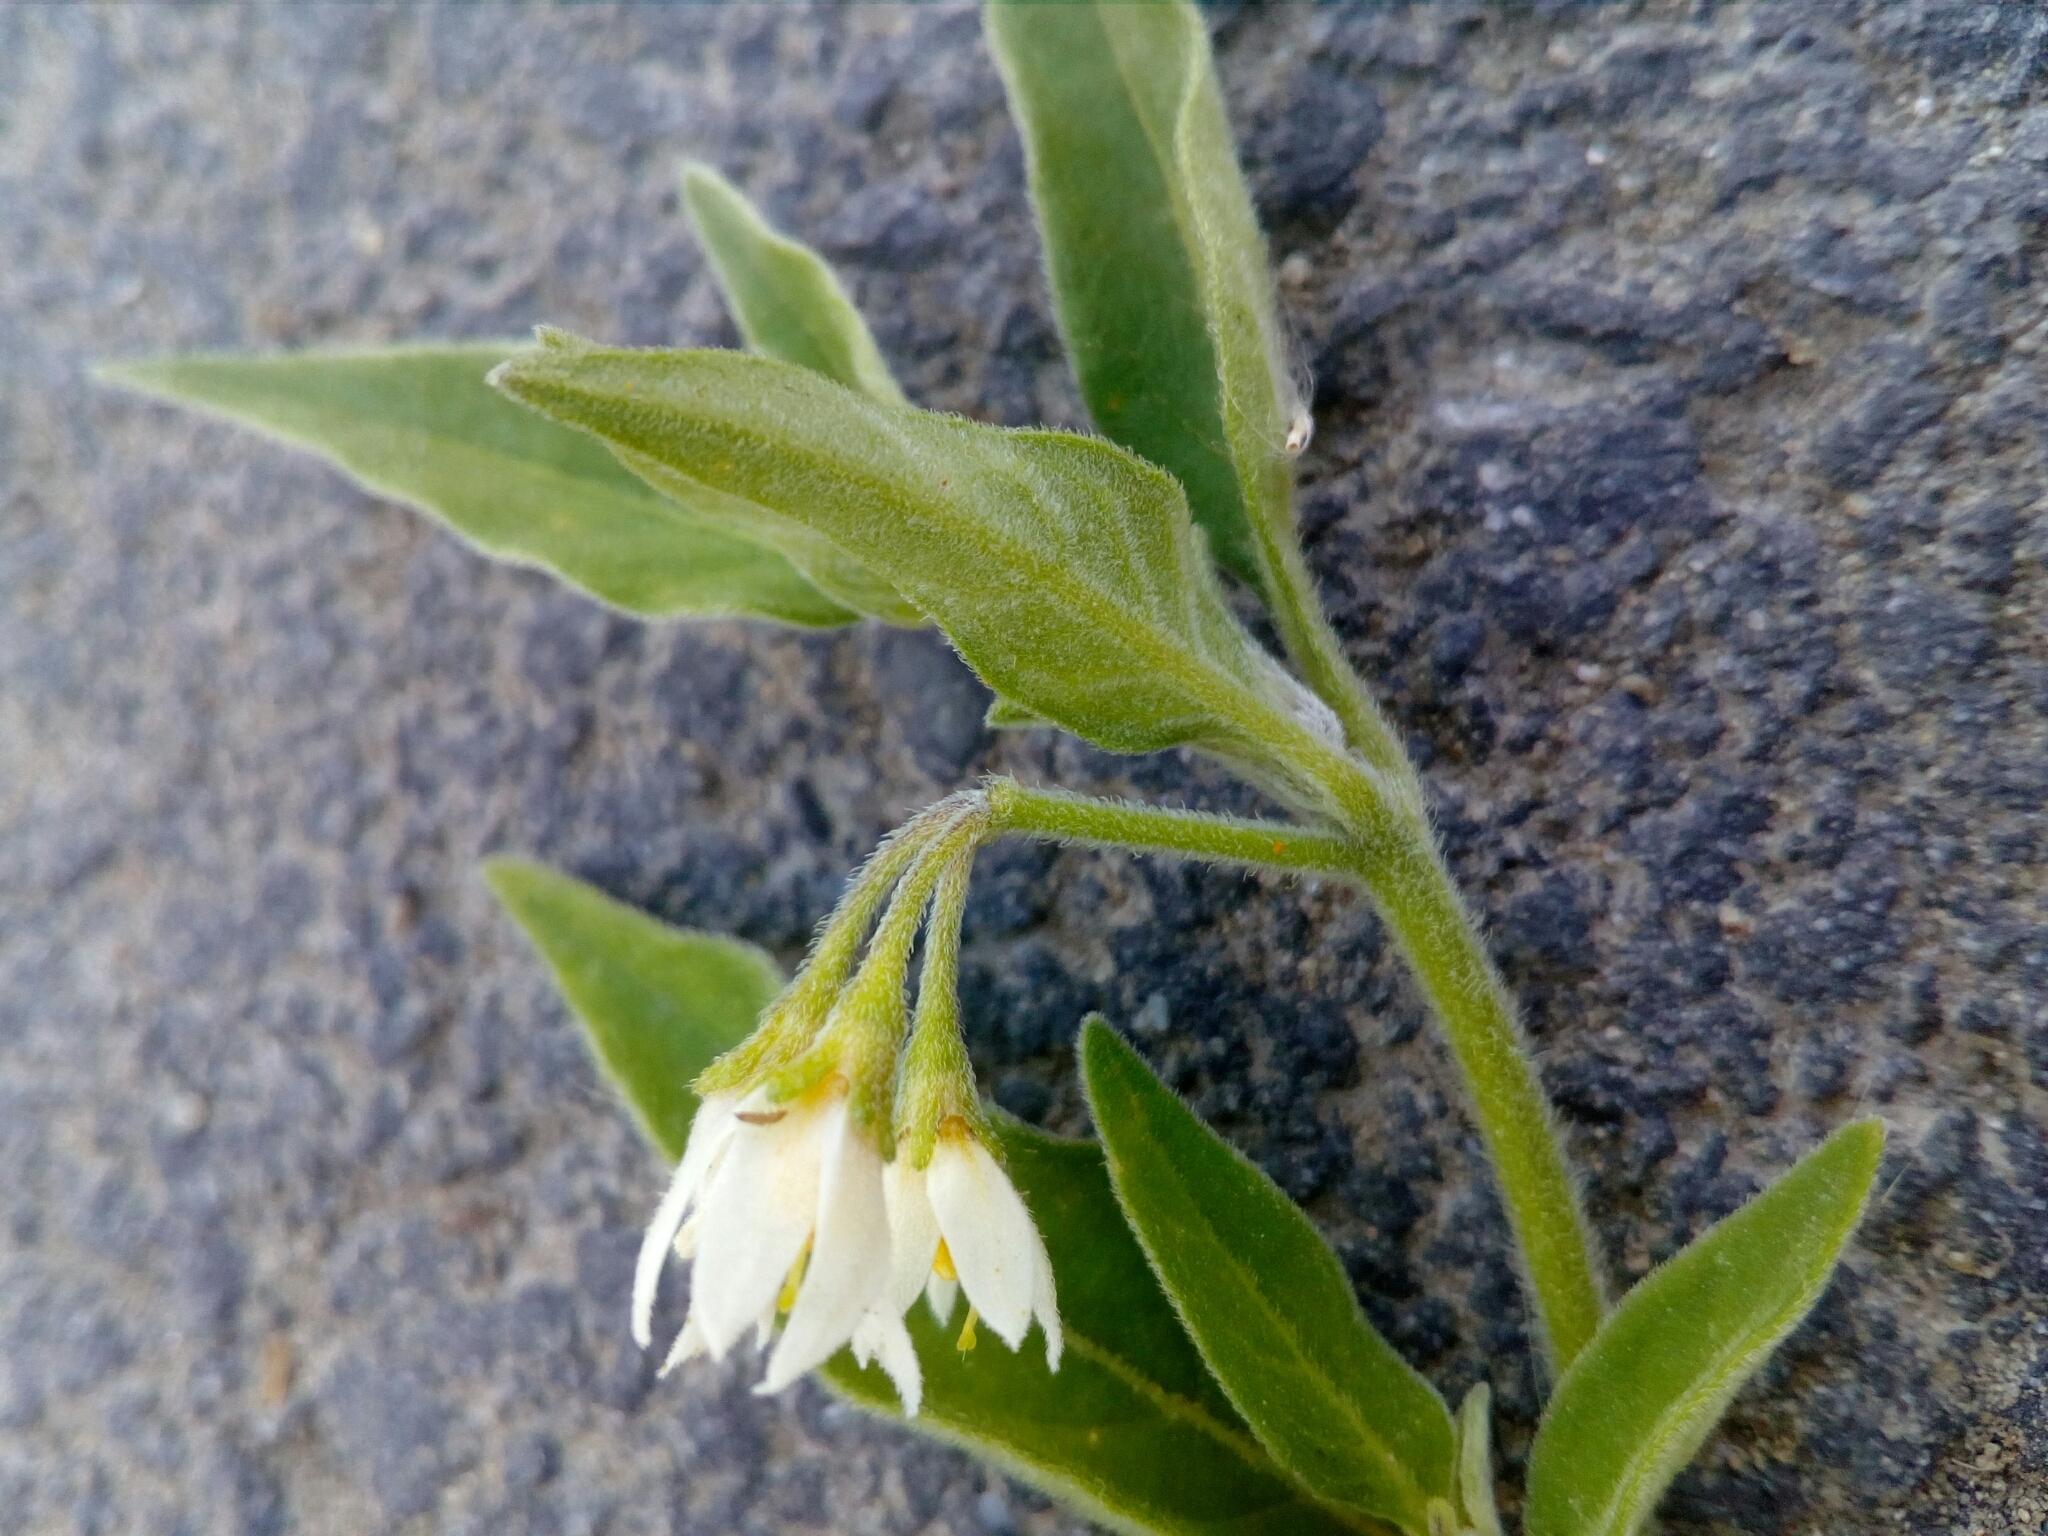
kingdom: Plantae
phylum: Tracheophyta
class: Magnoliopsida
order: Solanales
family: Solanaceae
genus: Solanum
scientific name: Solanum chenopodioides
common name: Tall nightshade
